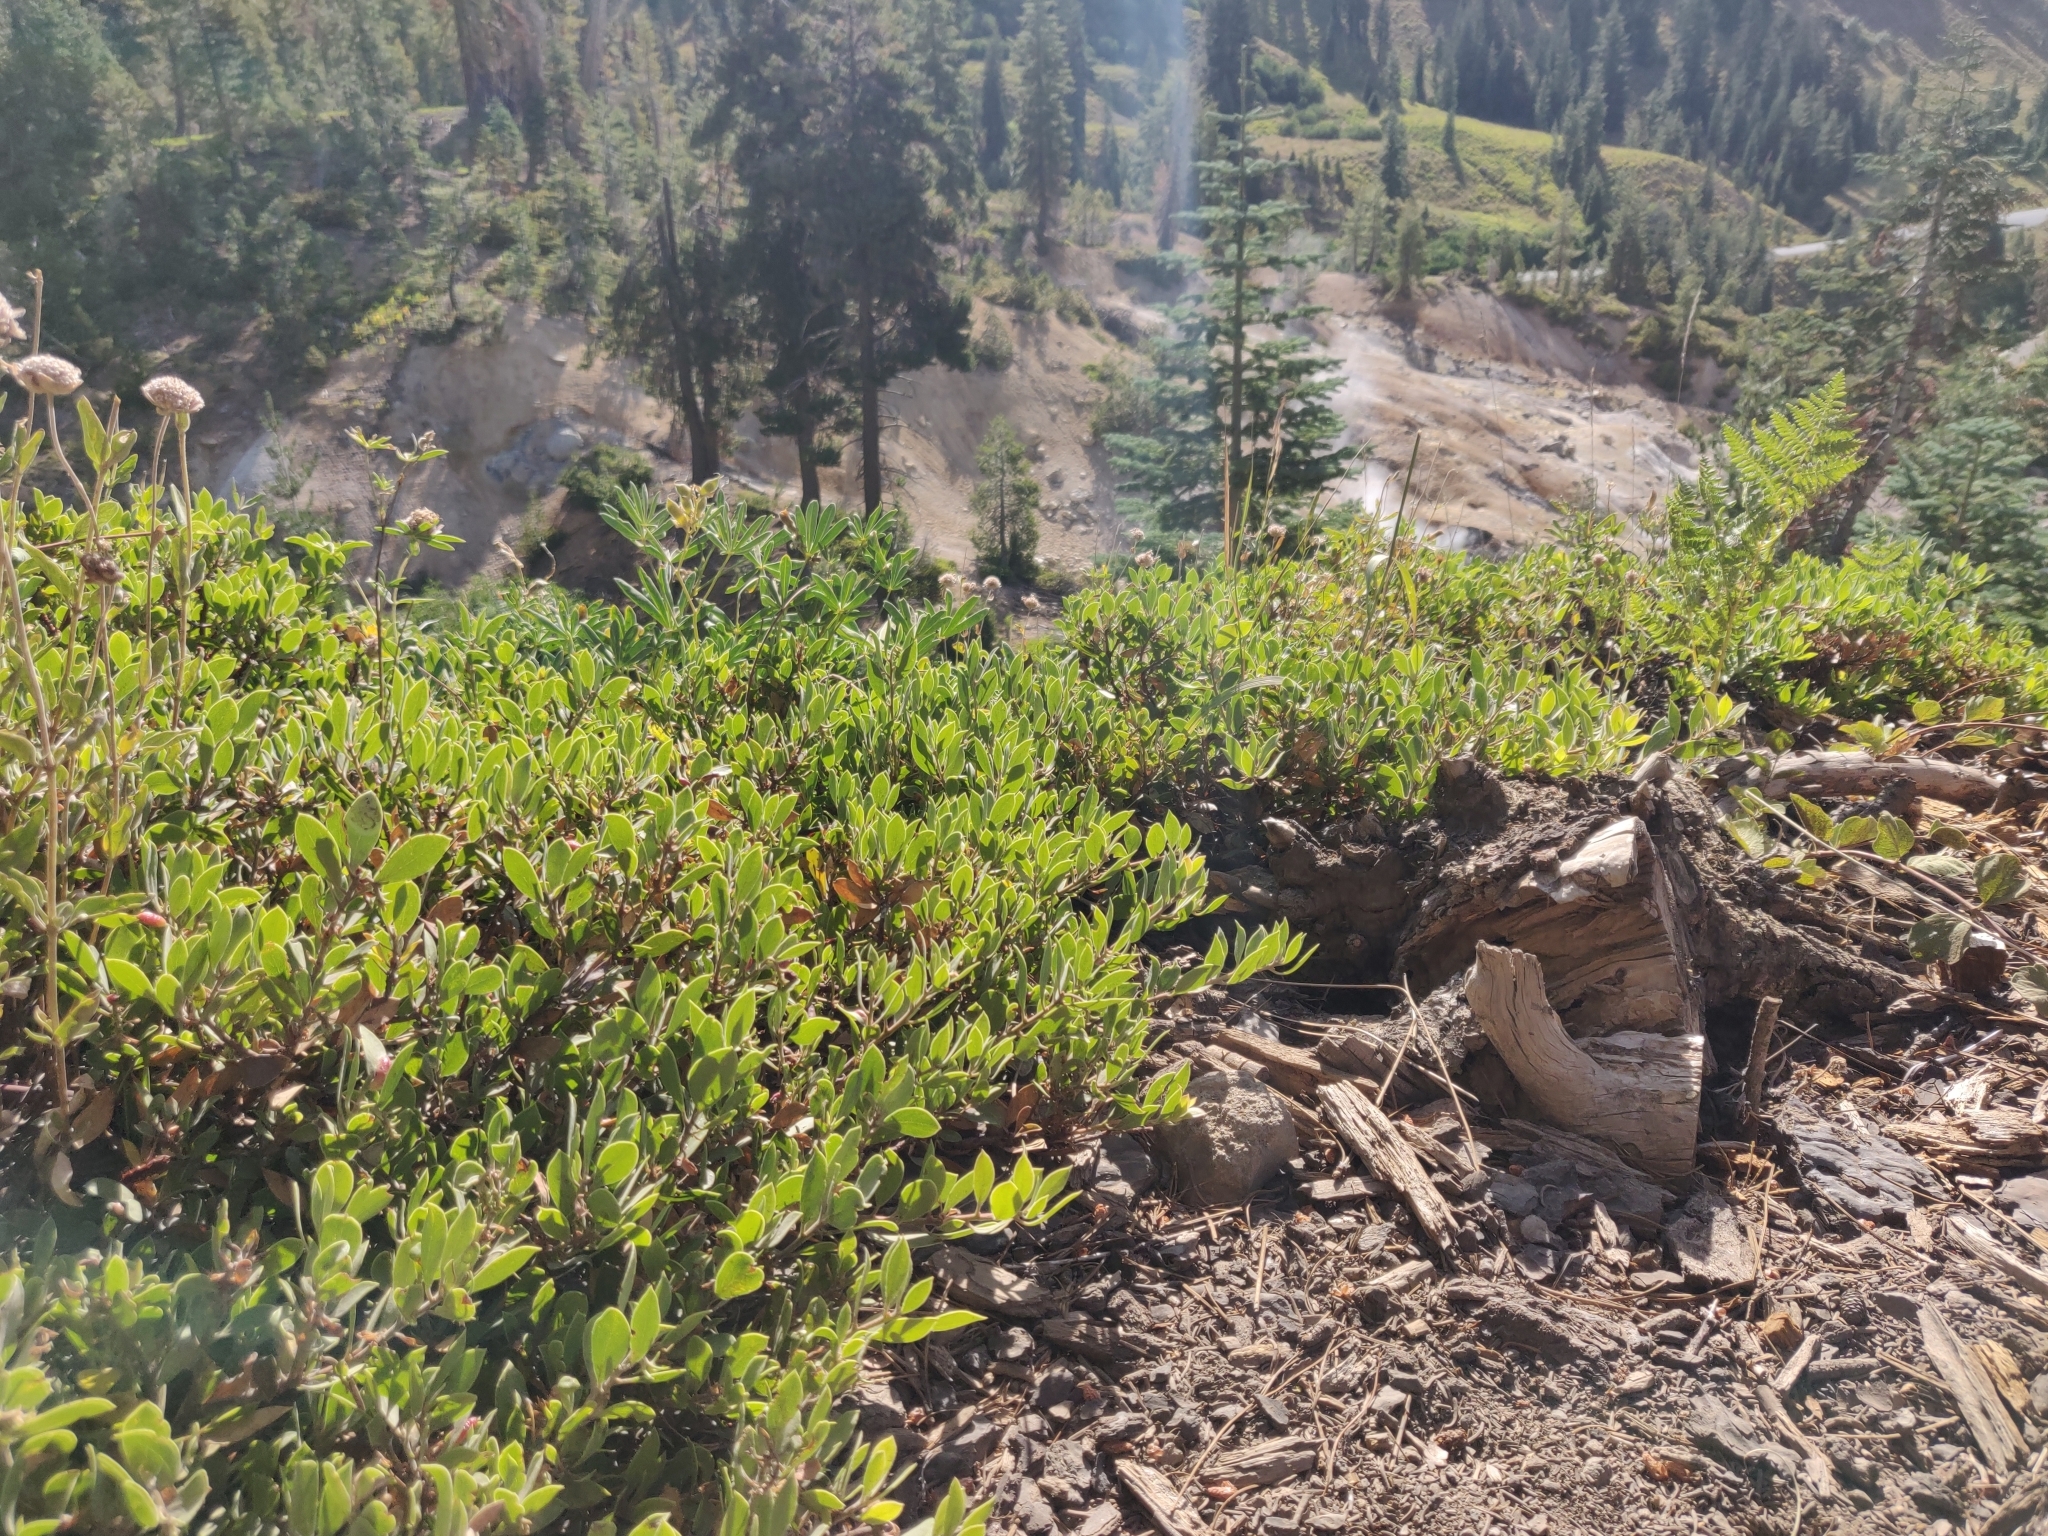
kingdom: Plantae
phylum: Tracheophyta
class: Magnoliopsida
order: Ericales
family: Ericaceae
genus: Arctostaphylos
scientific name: Arctostaphylos nevadensis
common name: Pinemat manzanita
